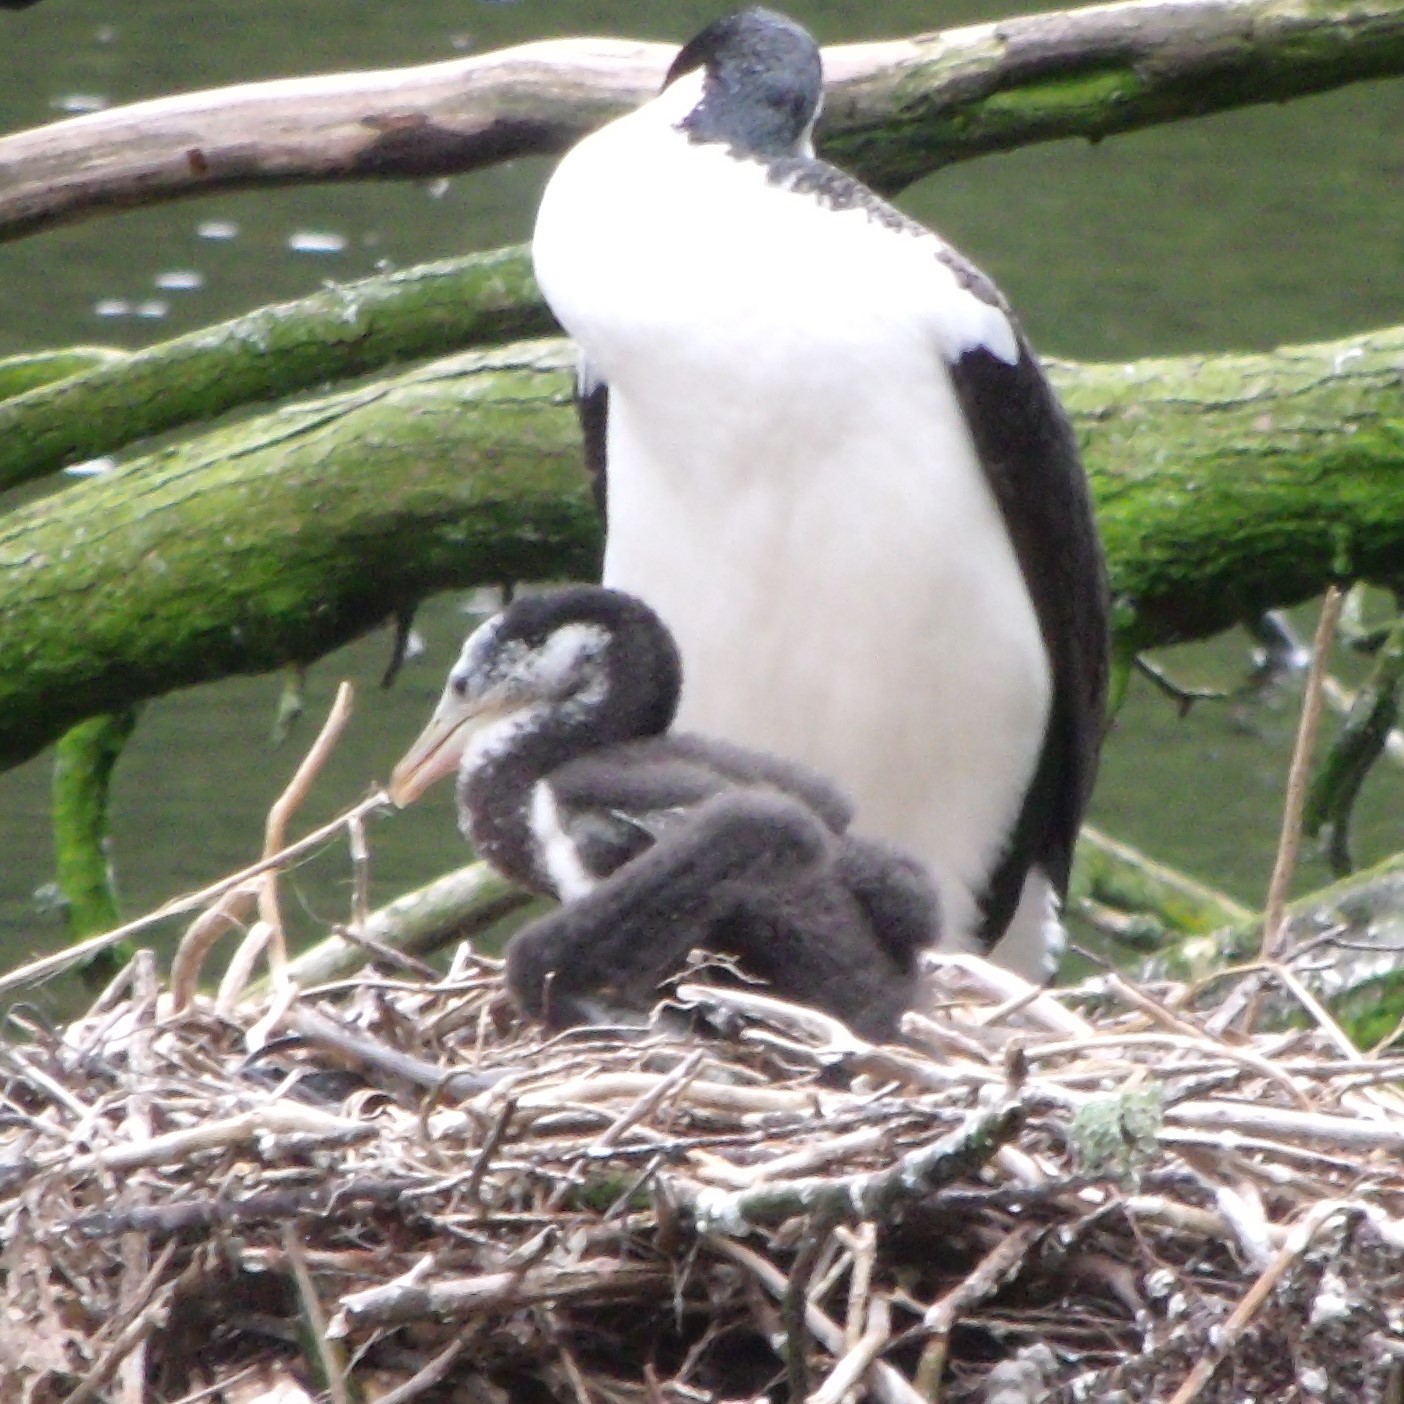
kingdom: Animalia
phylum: Chordata
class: Aves
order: Suliformes
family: Phalacrocoracidae
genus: Phalacrocorax
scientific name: Phalacrocorax varius
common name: Pied cormorant
